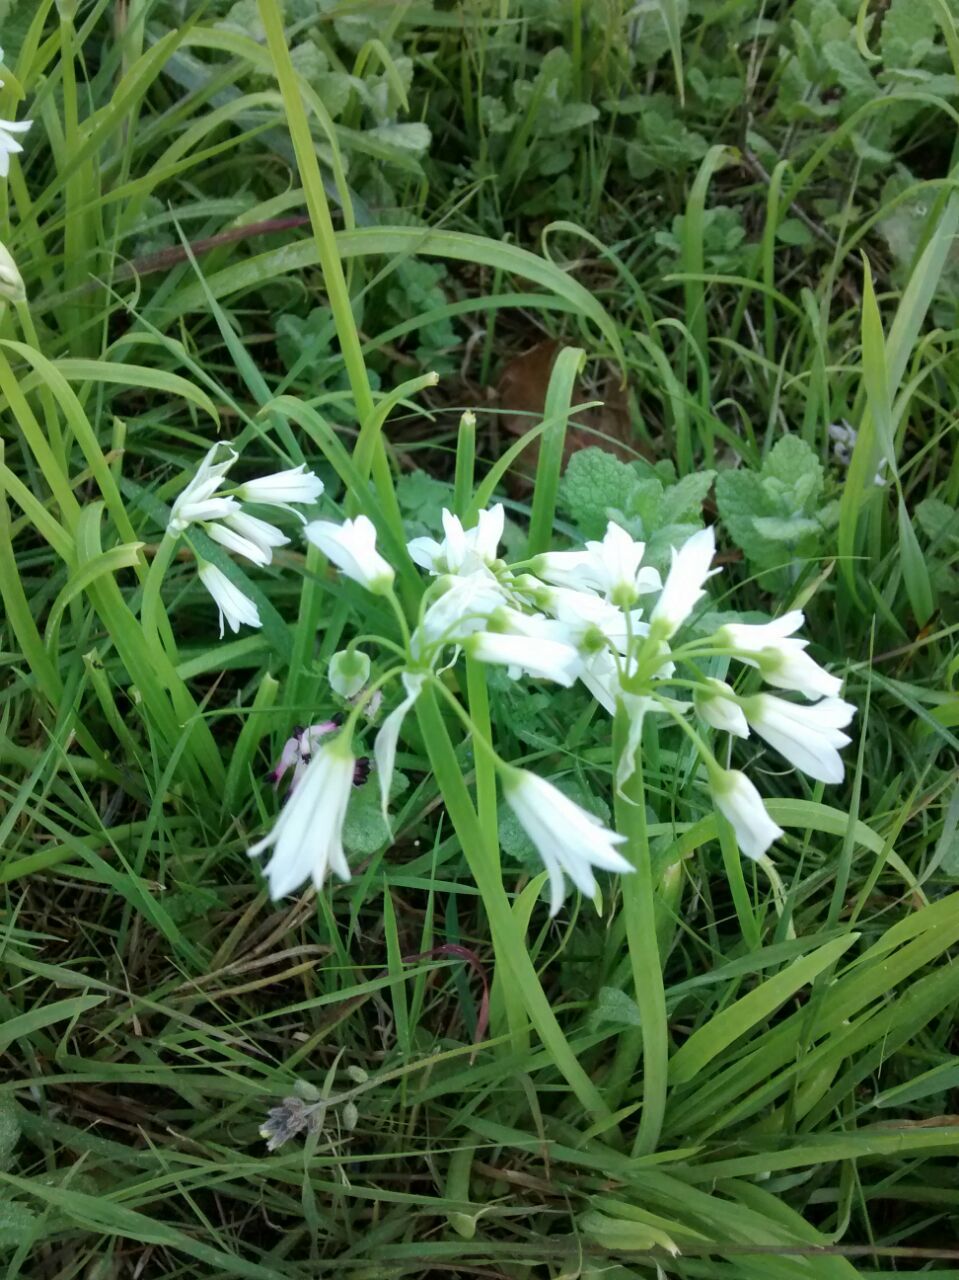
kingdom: Plantae
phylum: Tracheophyta
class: Liliopsida
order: Asparagales
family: Amaryllidaceae
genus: Allium
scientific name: Allium triquetrum
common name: Three-cornered garlic
